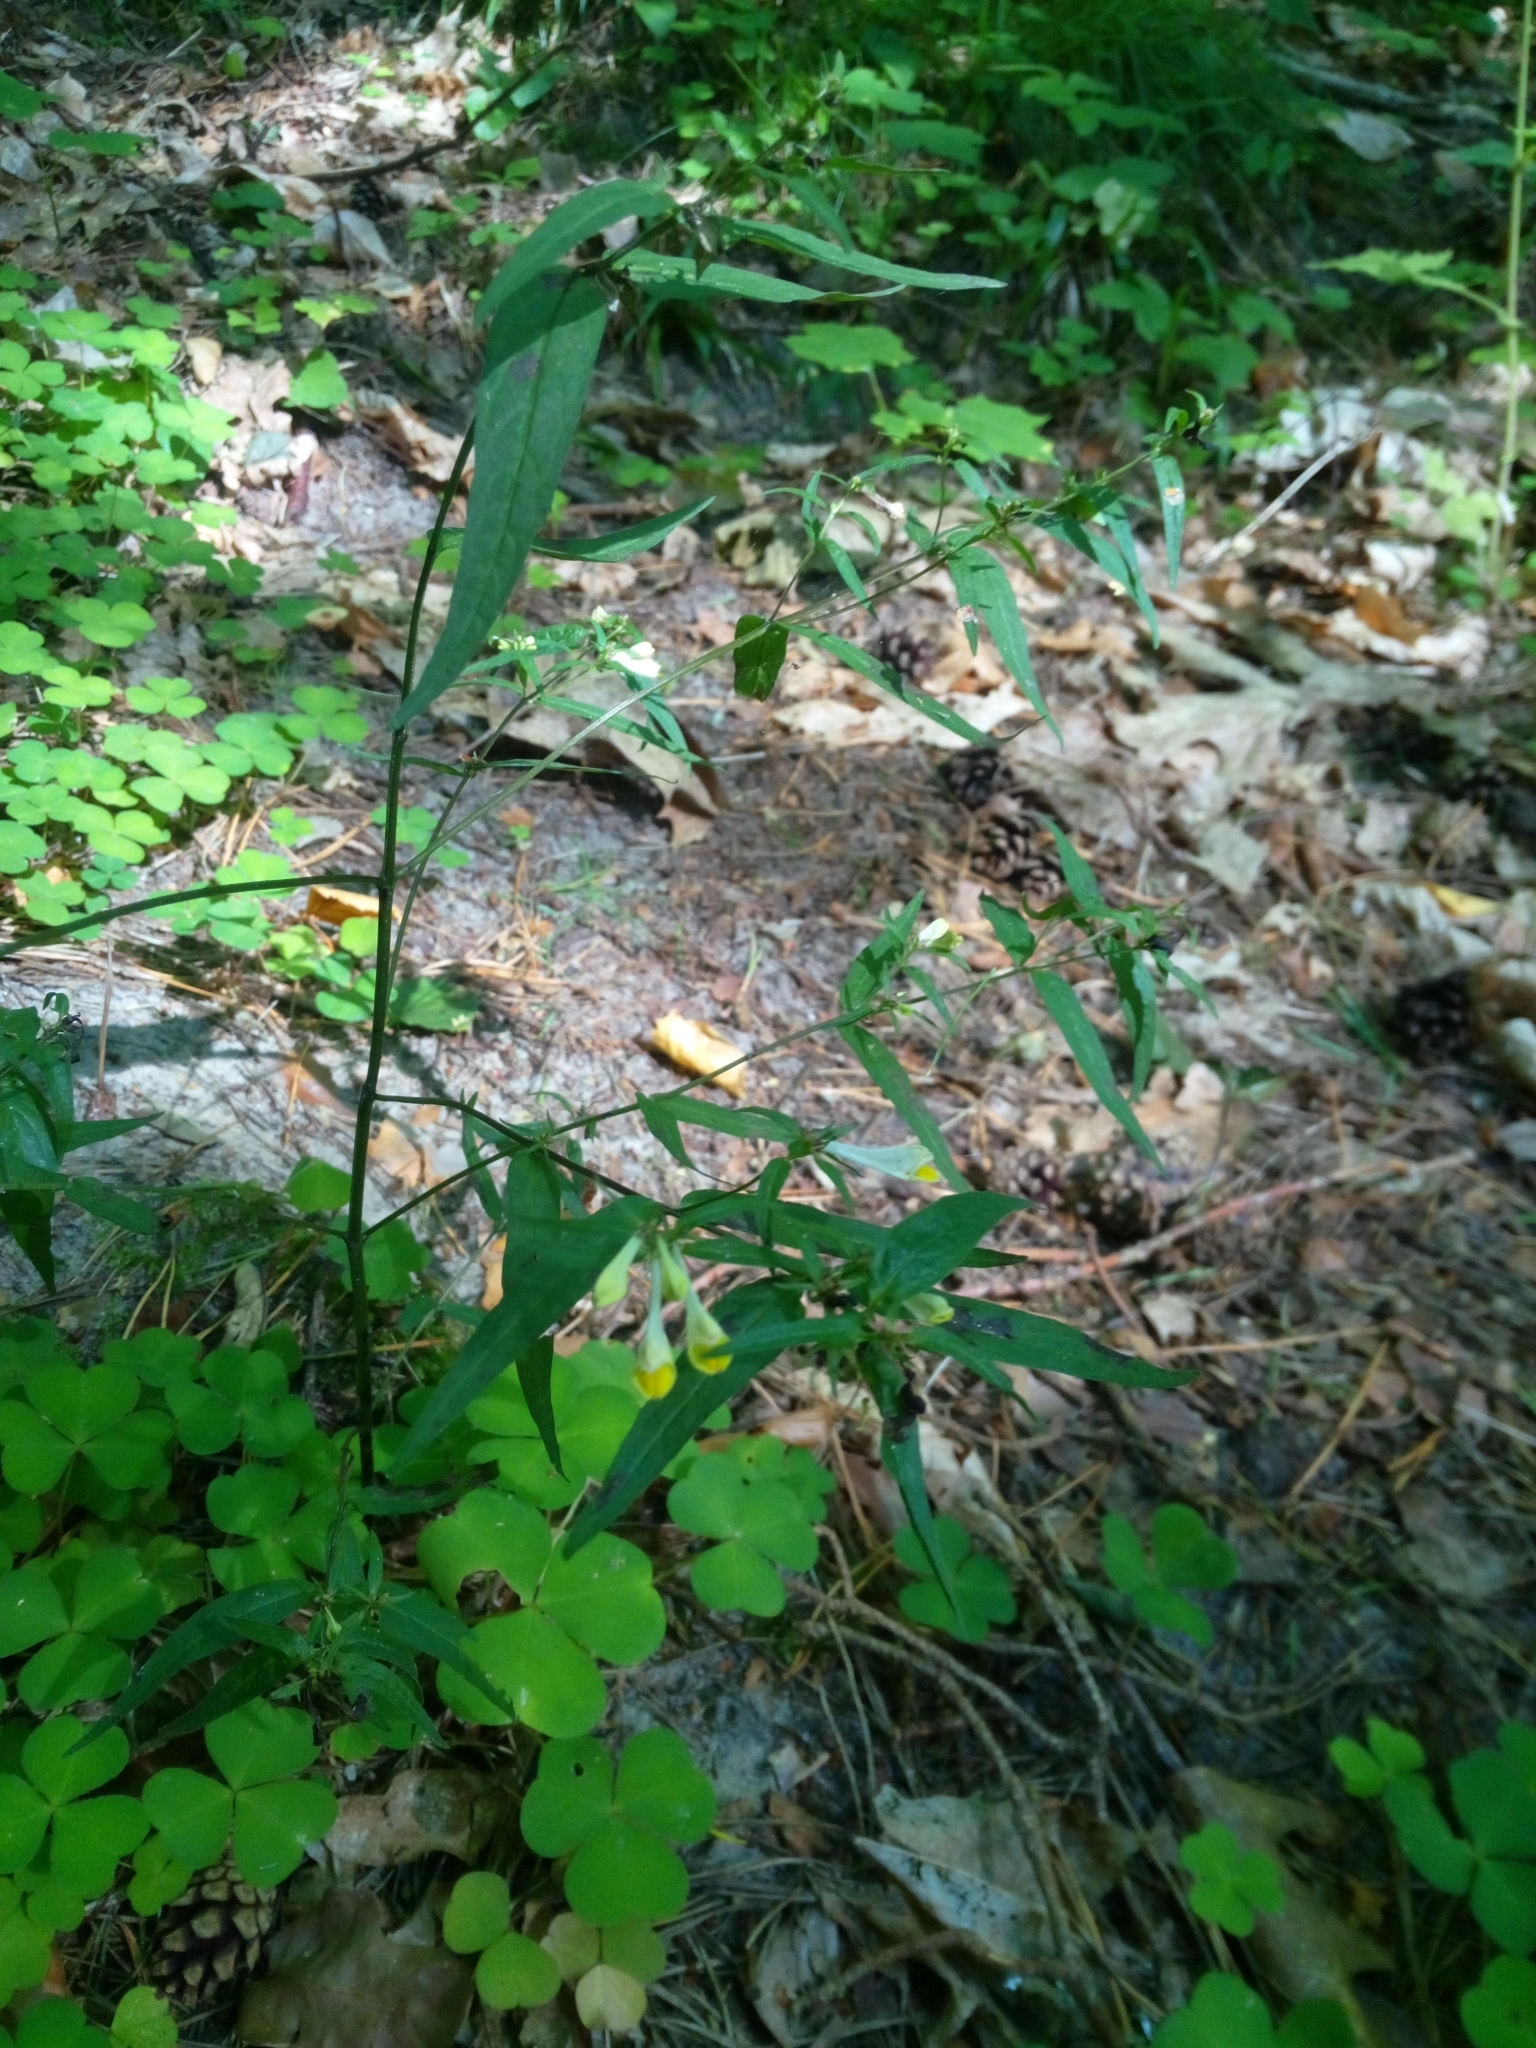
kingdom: Plantae
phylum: Tracheophyta
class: Magnoliopsida
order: Lamiales
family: Orobanchaceae
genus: Melampyrum
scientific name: Melampyrum pratense
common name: Common cow-wheat
